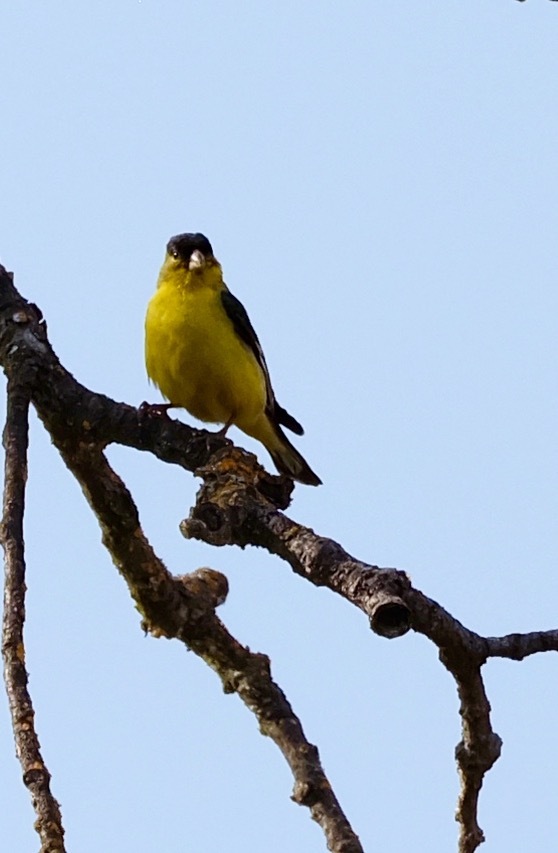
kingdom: Animalia
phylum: Chordata
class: Aves
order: Passeriformes
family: Fringillidae
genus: Spinus
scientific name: Spinus psaltria
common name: Lesser goldfinch
